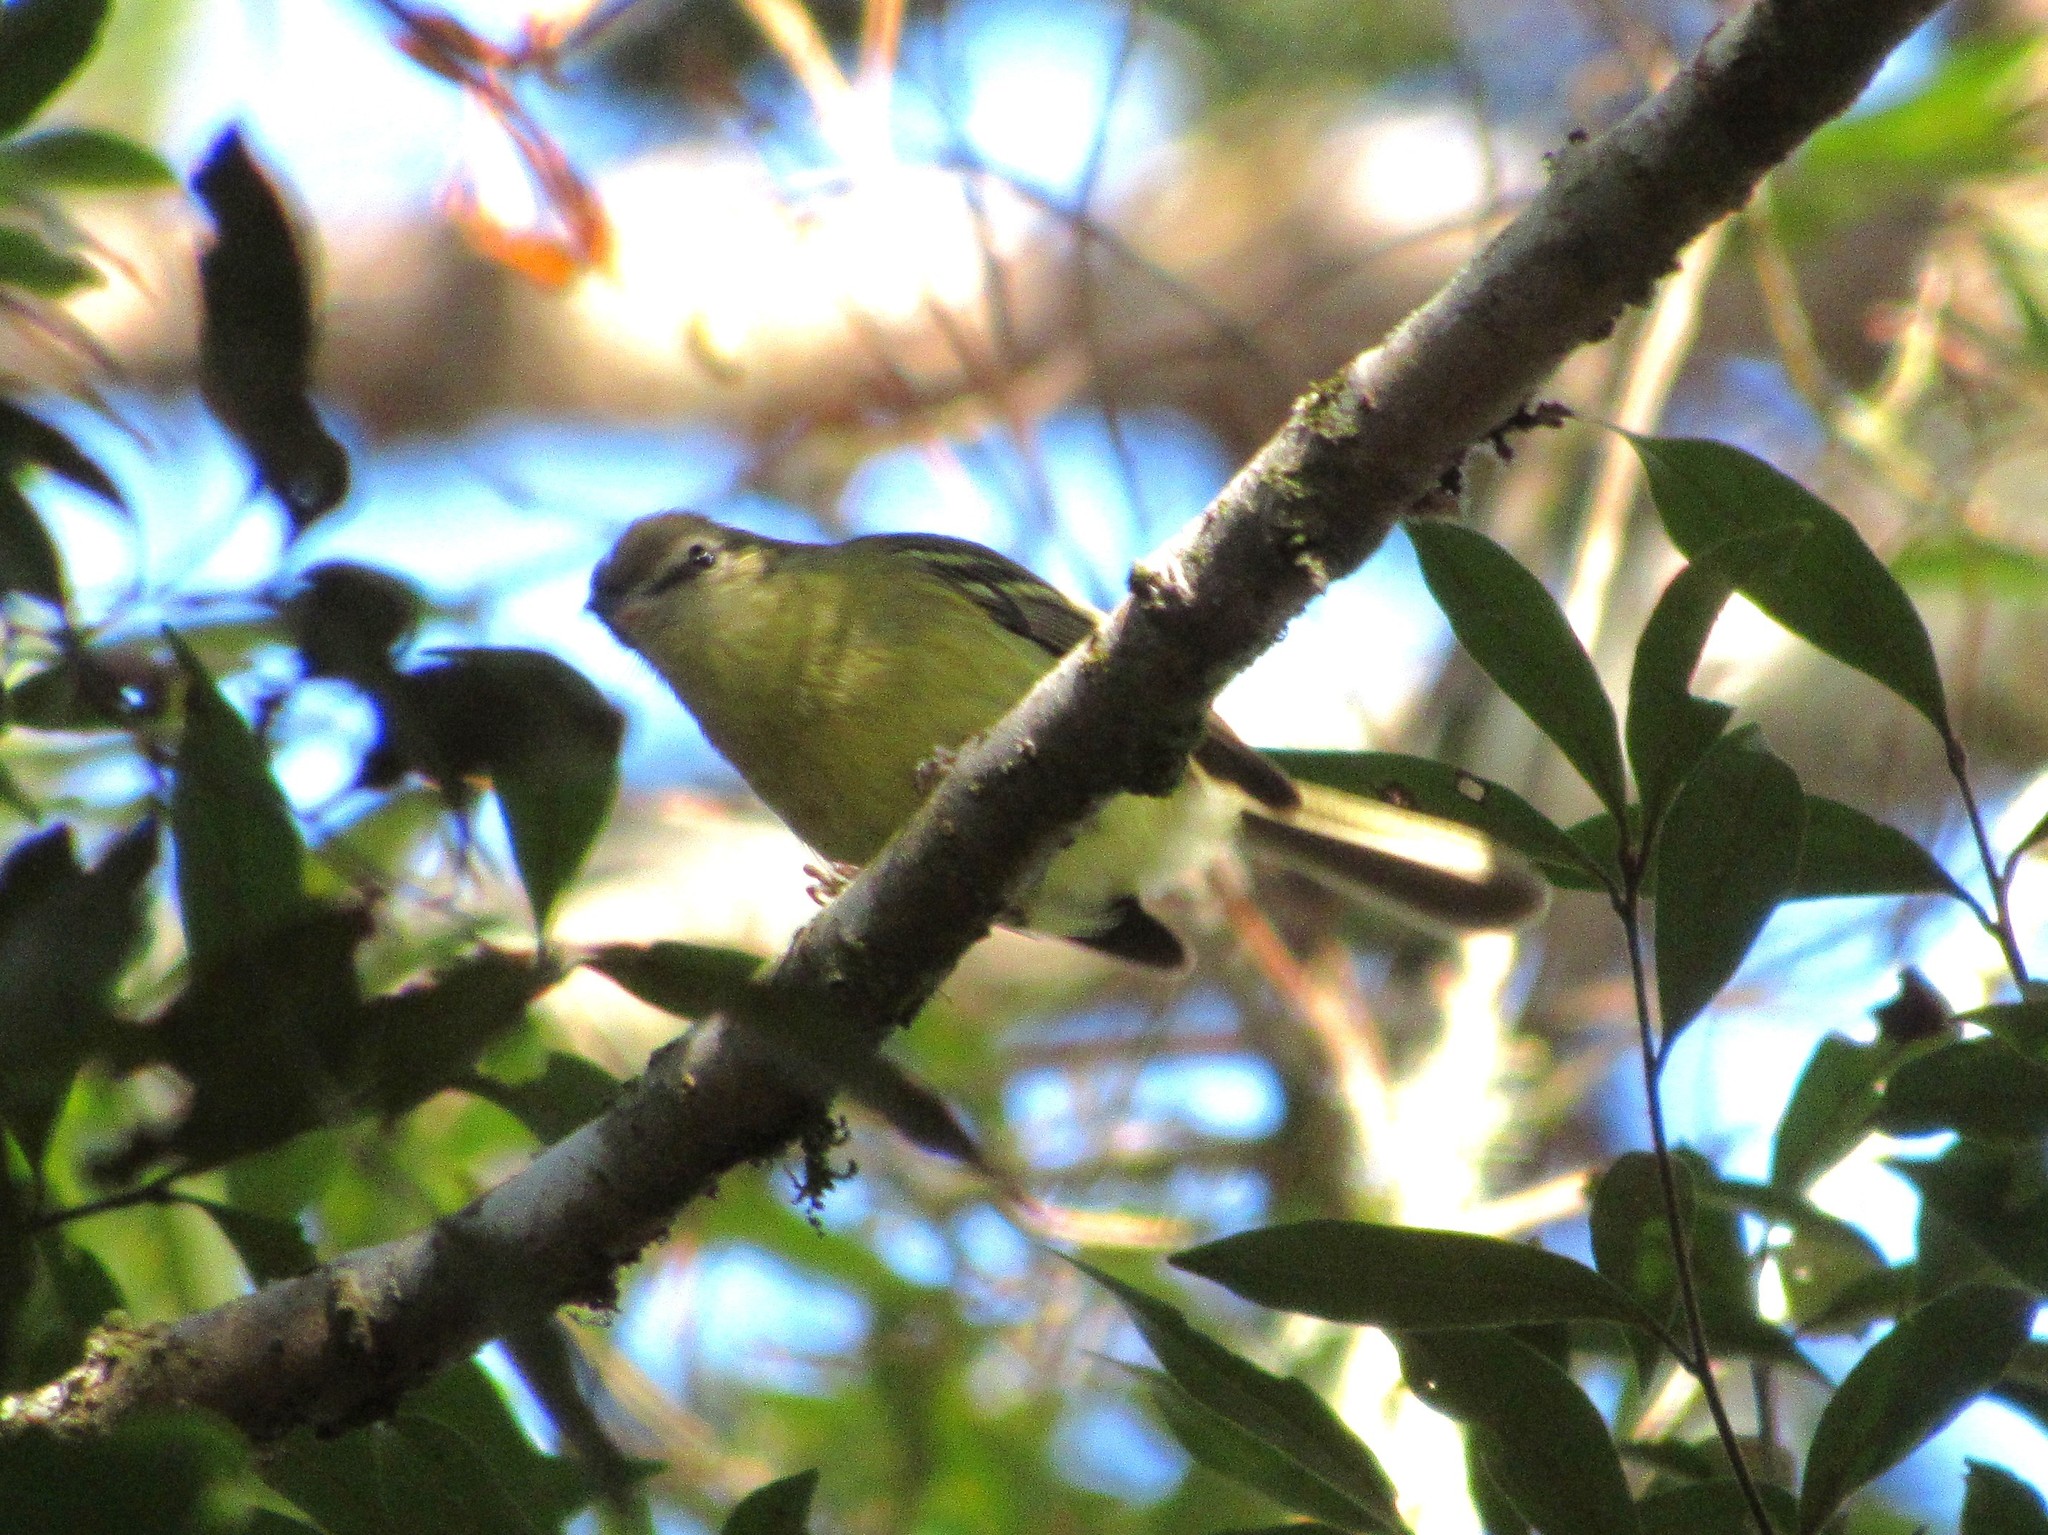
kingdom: Animalia
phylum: Chordata
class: Aves
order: Passeriformes
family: Tyrannidae
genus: Phylloscartes
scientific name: Phylloscartes ventralis
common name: Mottle-cheeked tyrannulet
